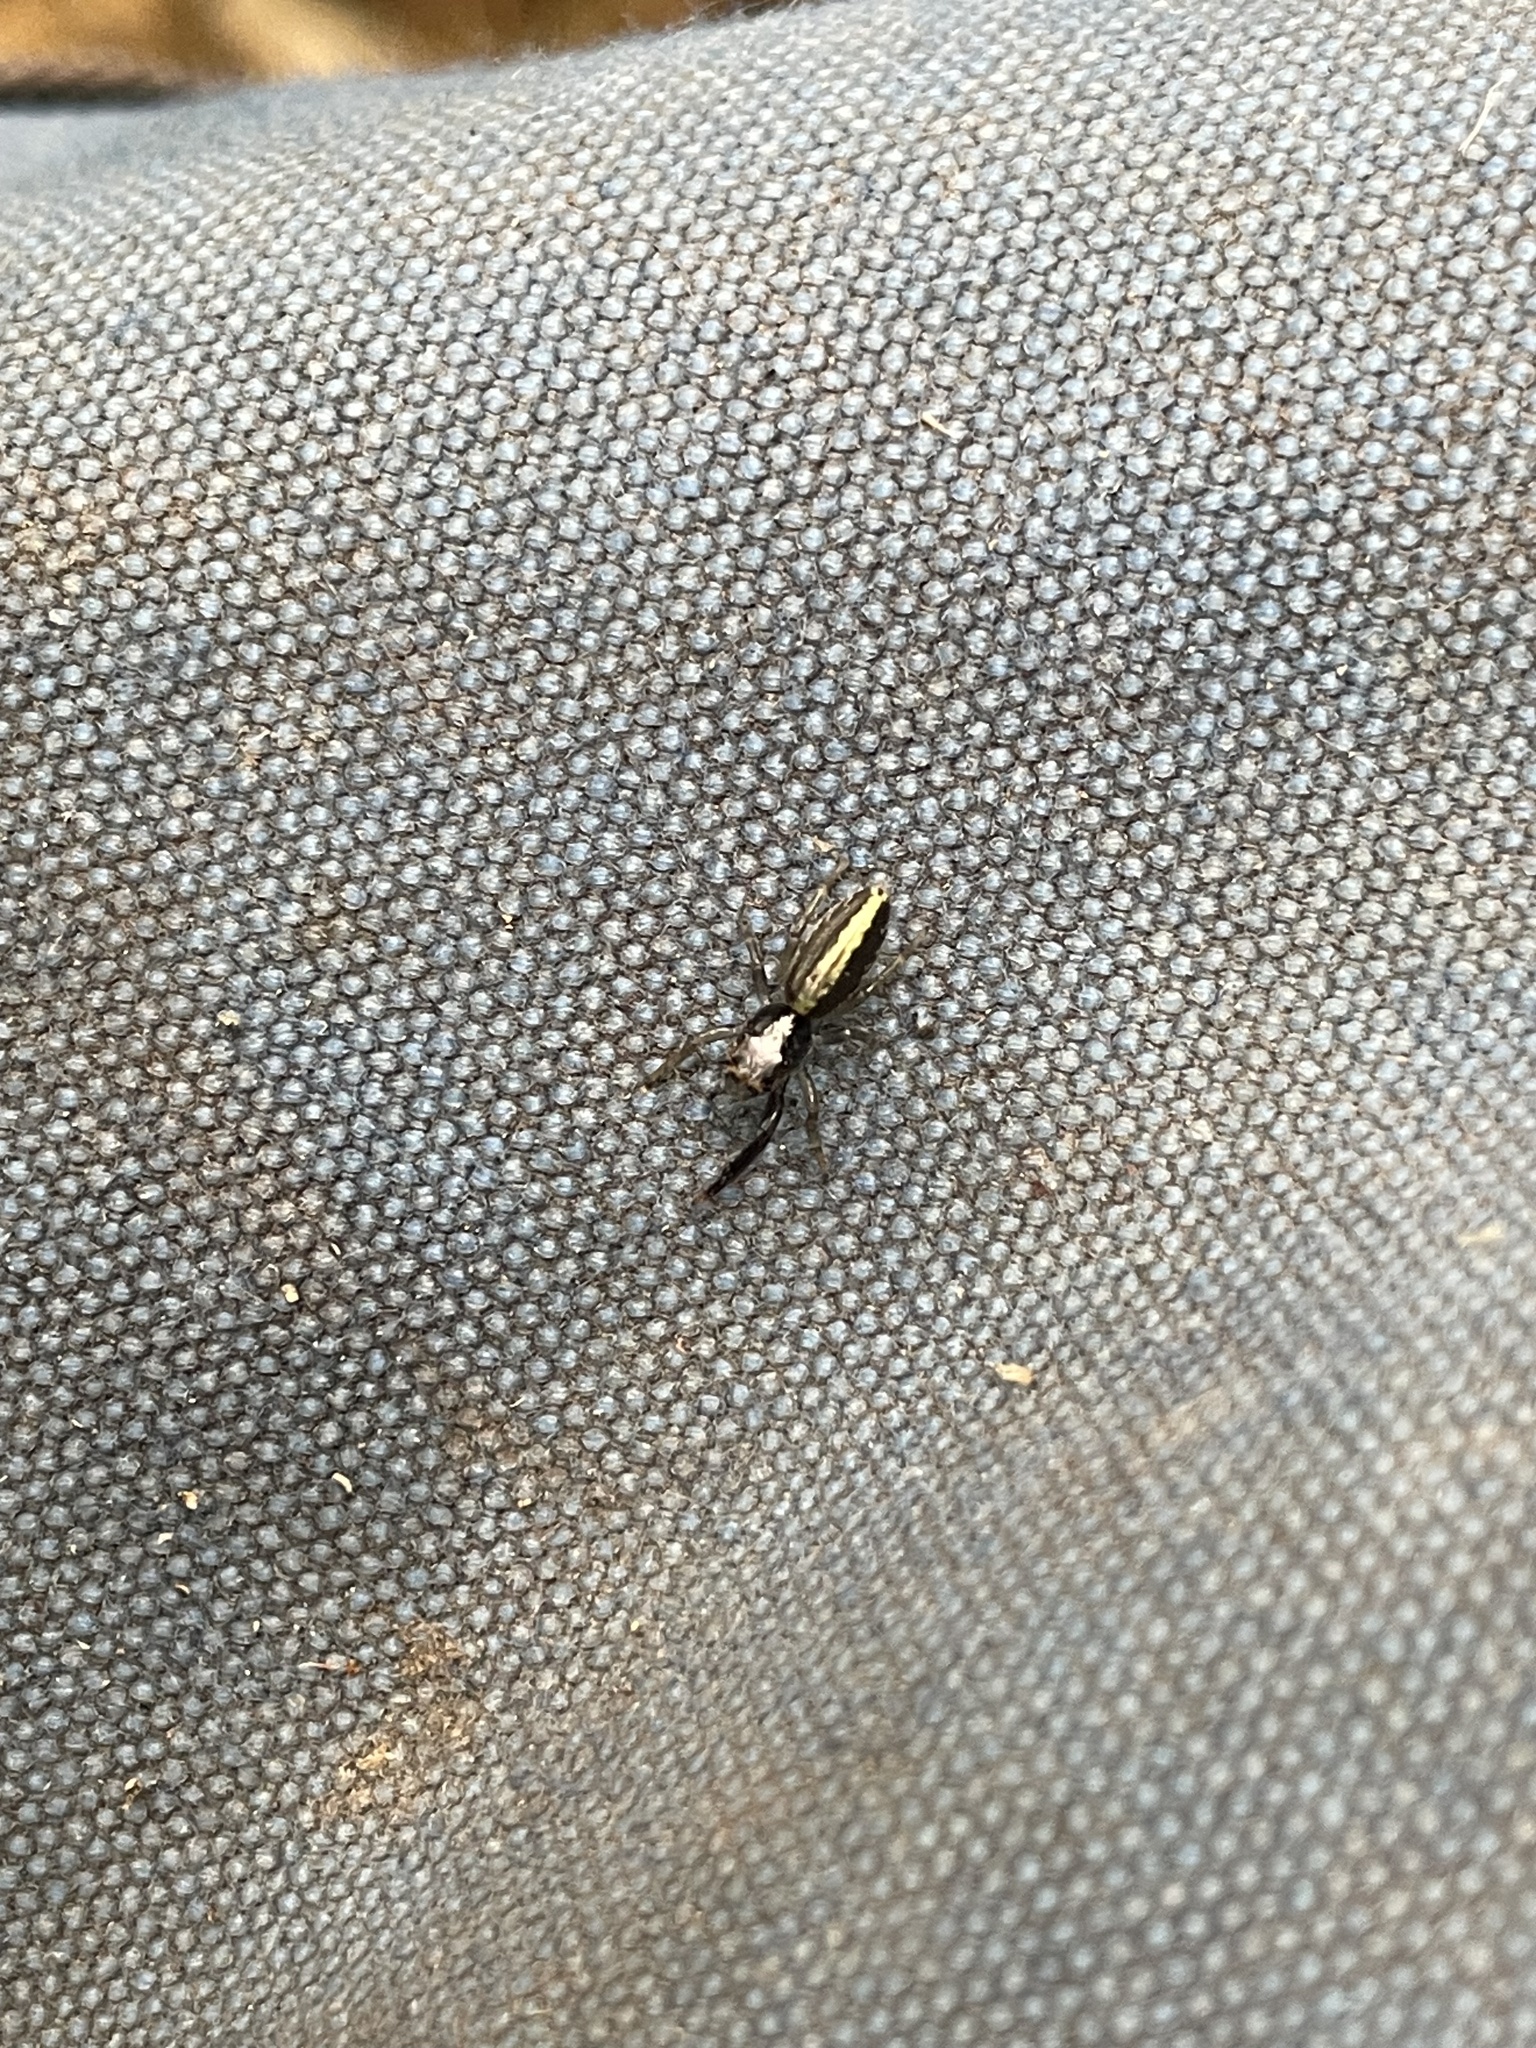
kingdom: Animalia
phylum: Arthropoda
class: Arachnida
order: Araneae
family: Salticidae
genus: Trite
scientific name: Trite planiceps
